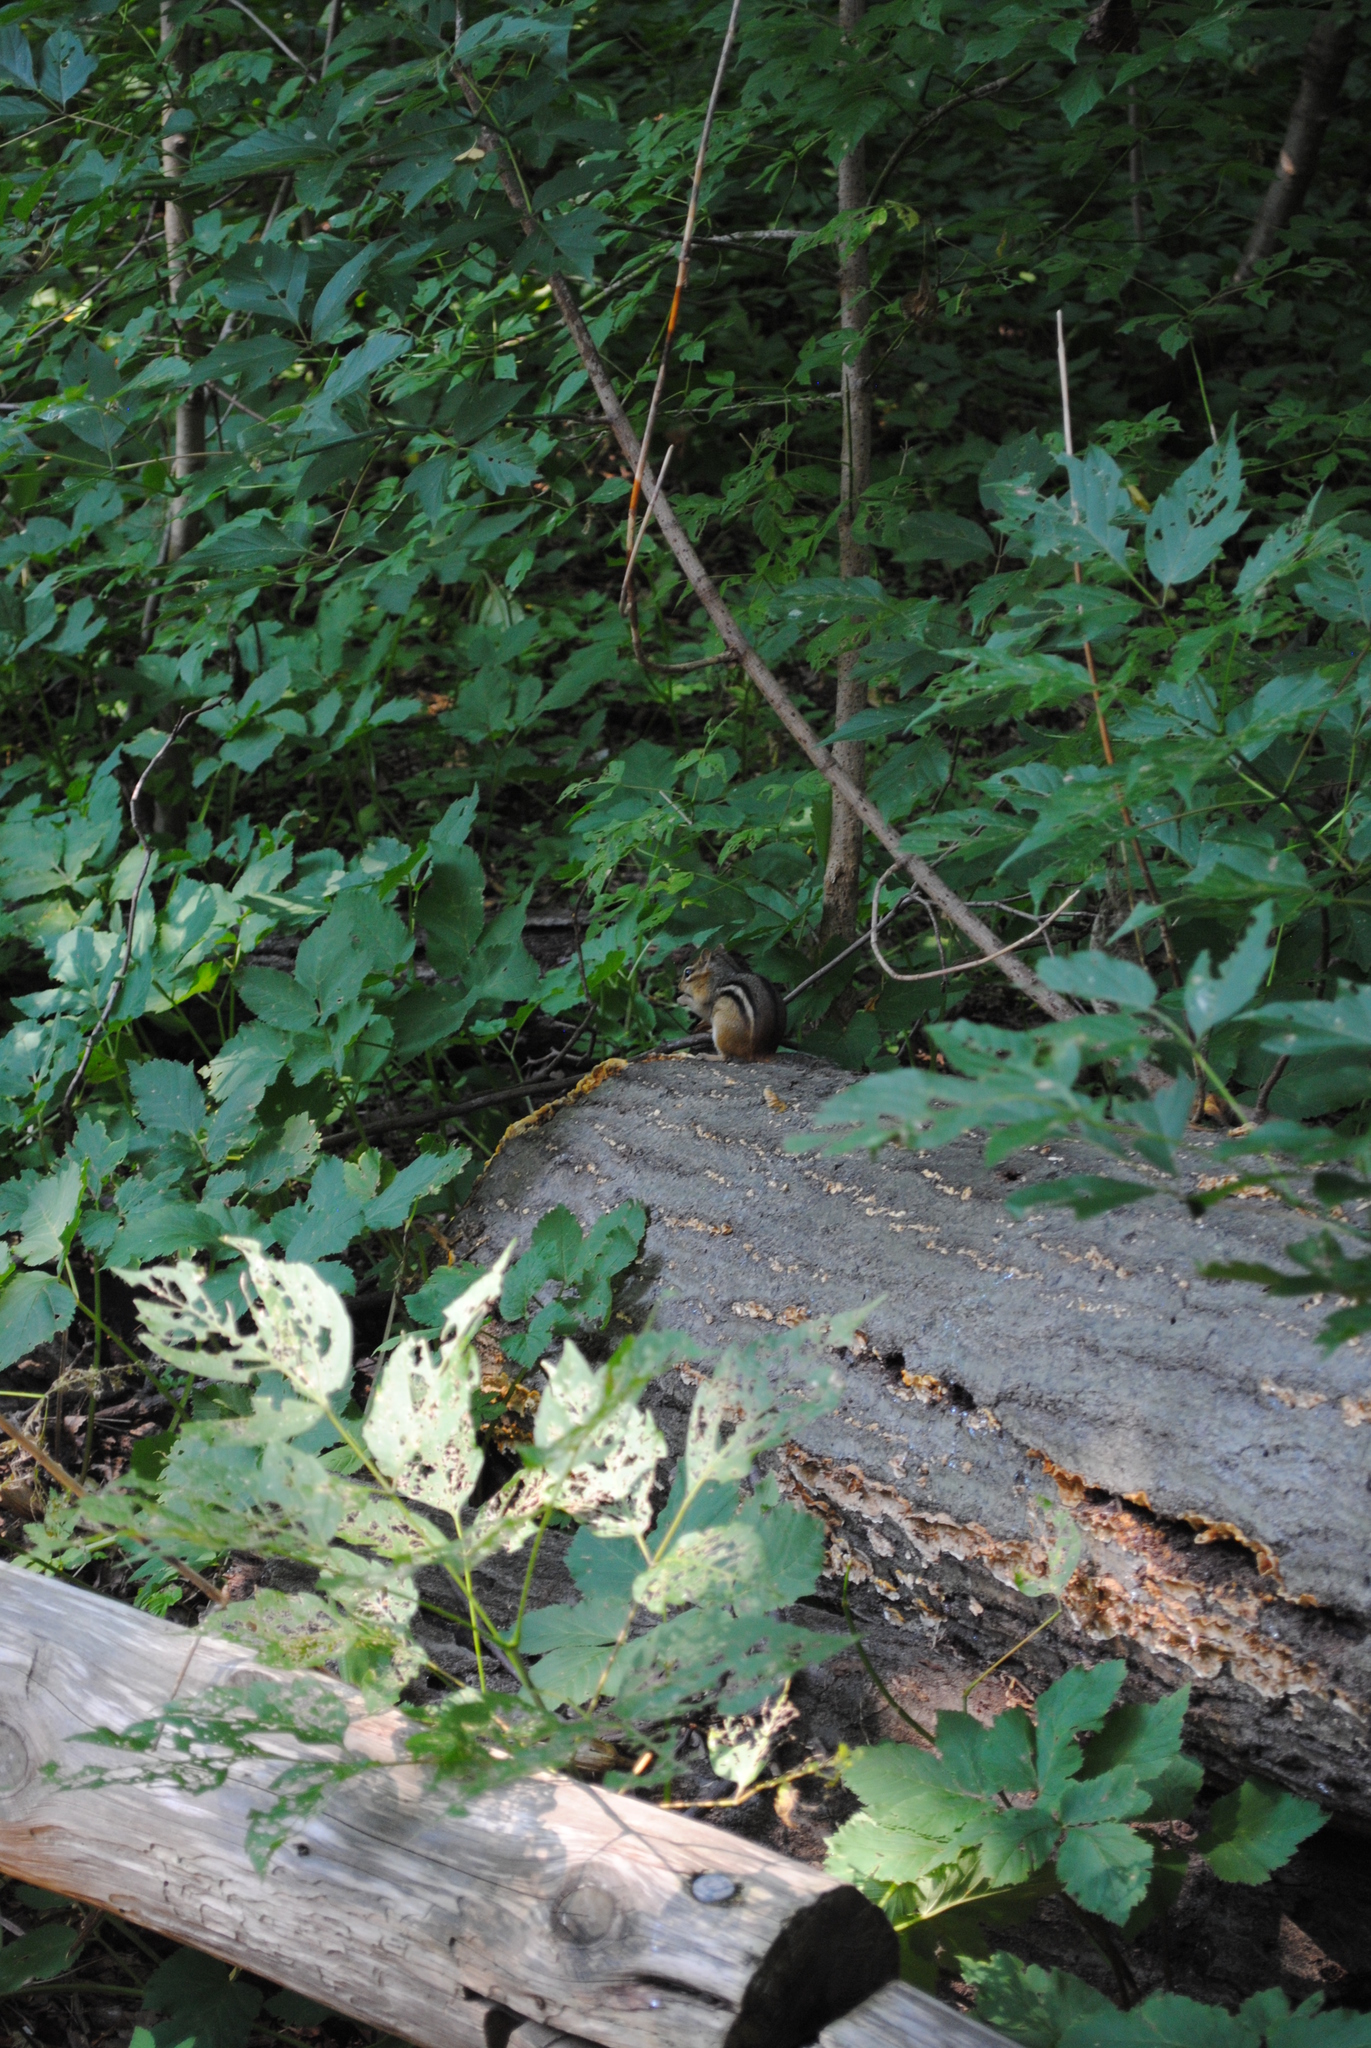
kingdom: Animalia
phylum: Chordata
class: Mammalia
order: Rodentia
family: Sciuridae
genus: Tamias
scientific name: Tamias striatus
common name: Eastern chipmunk
